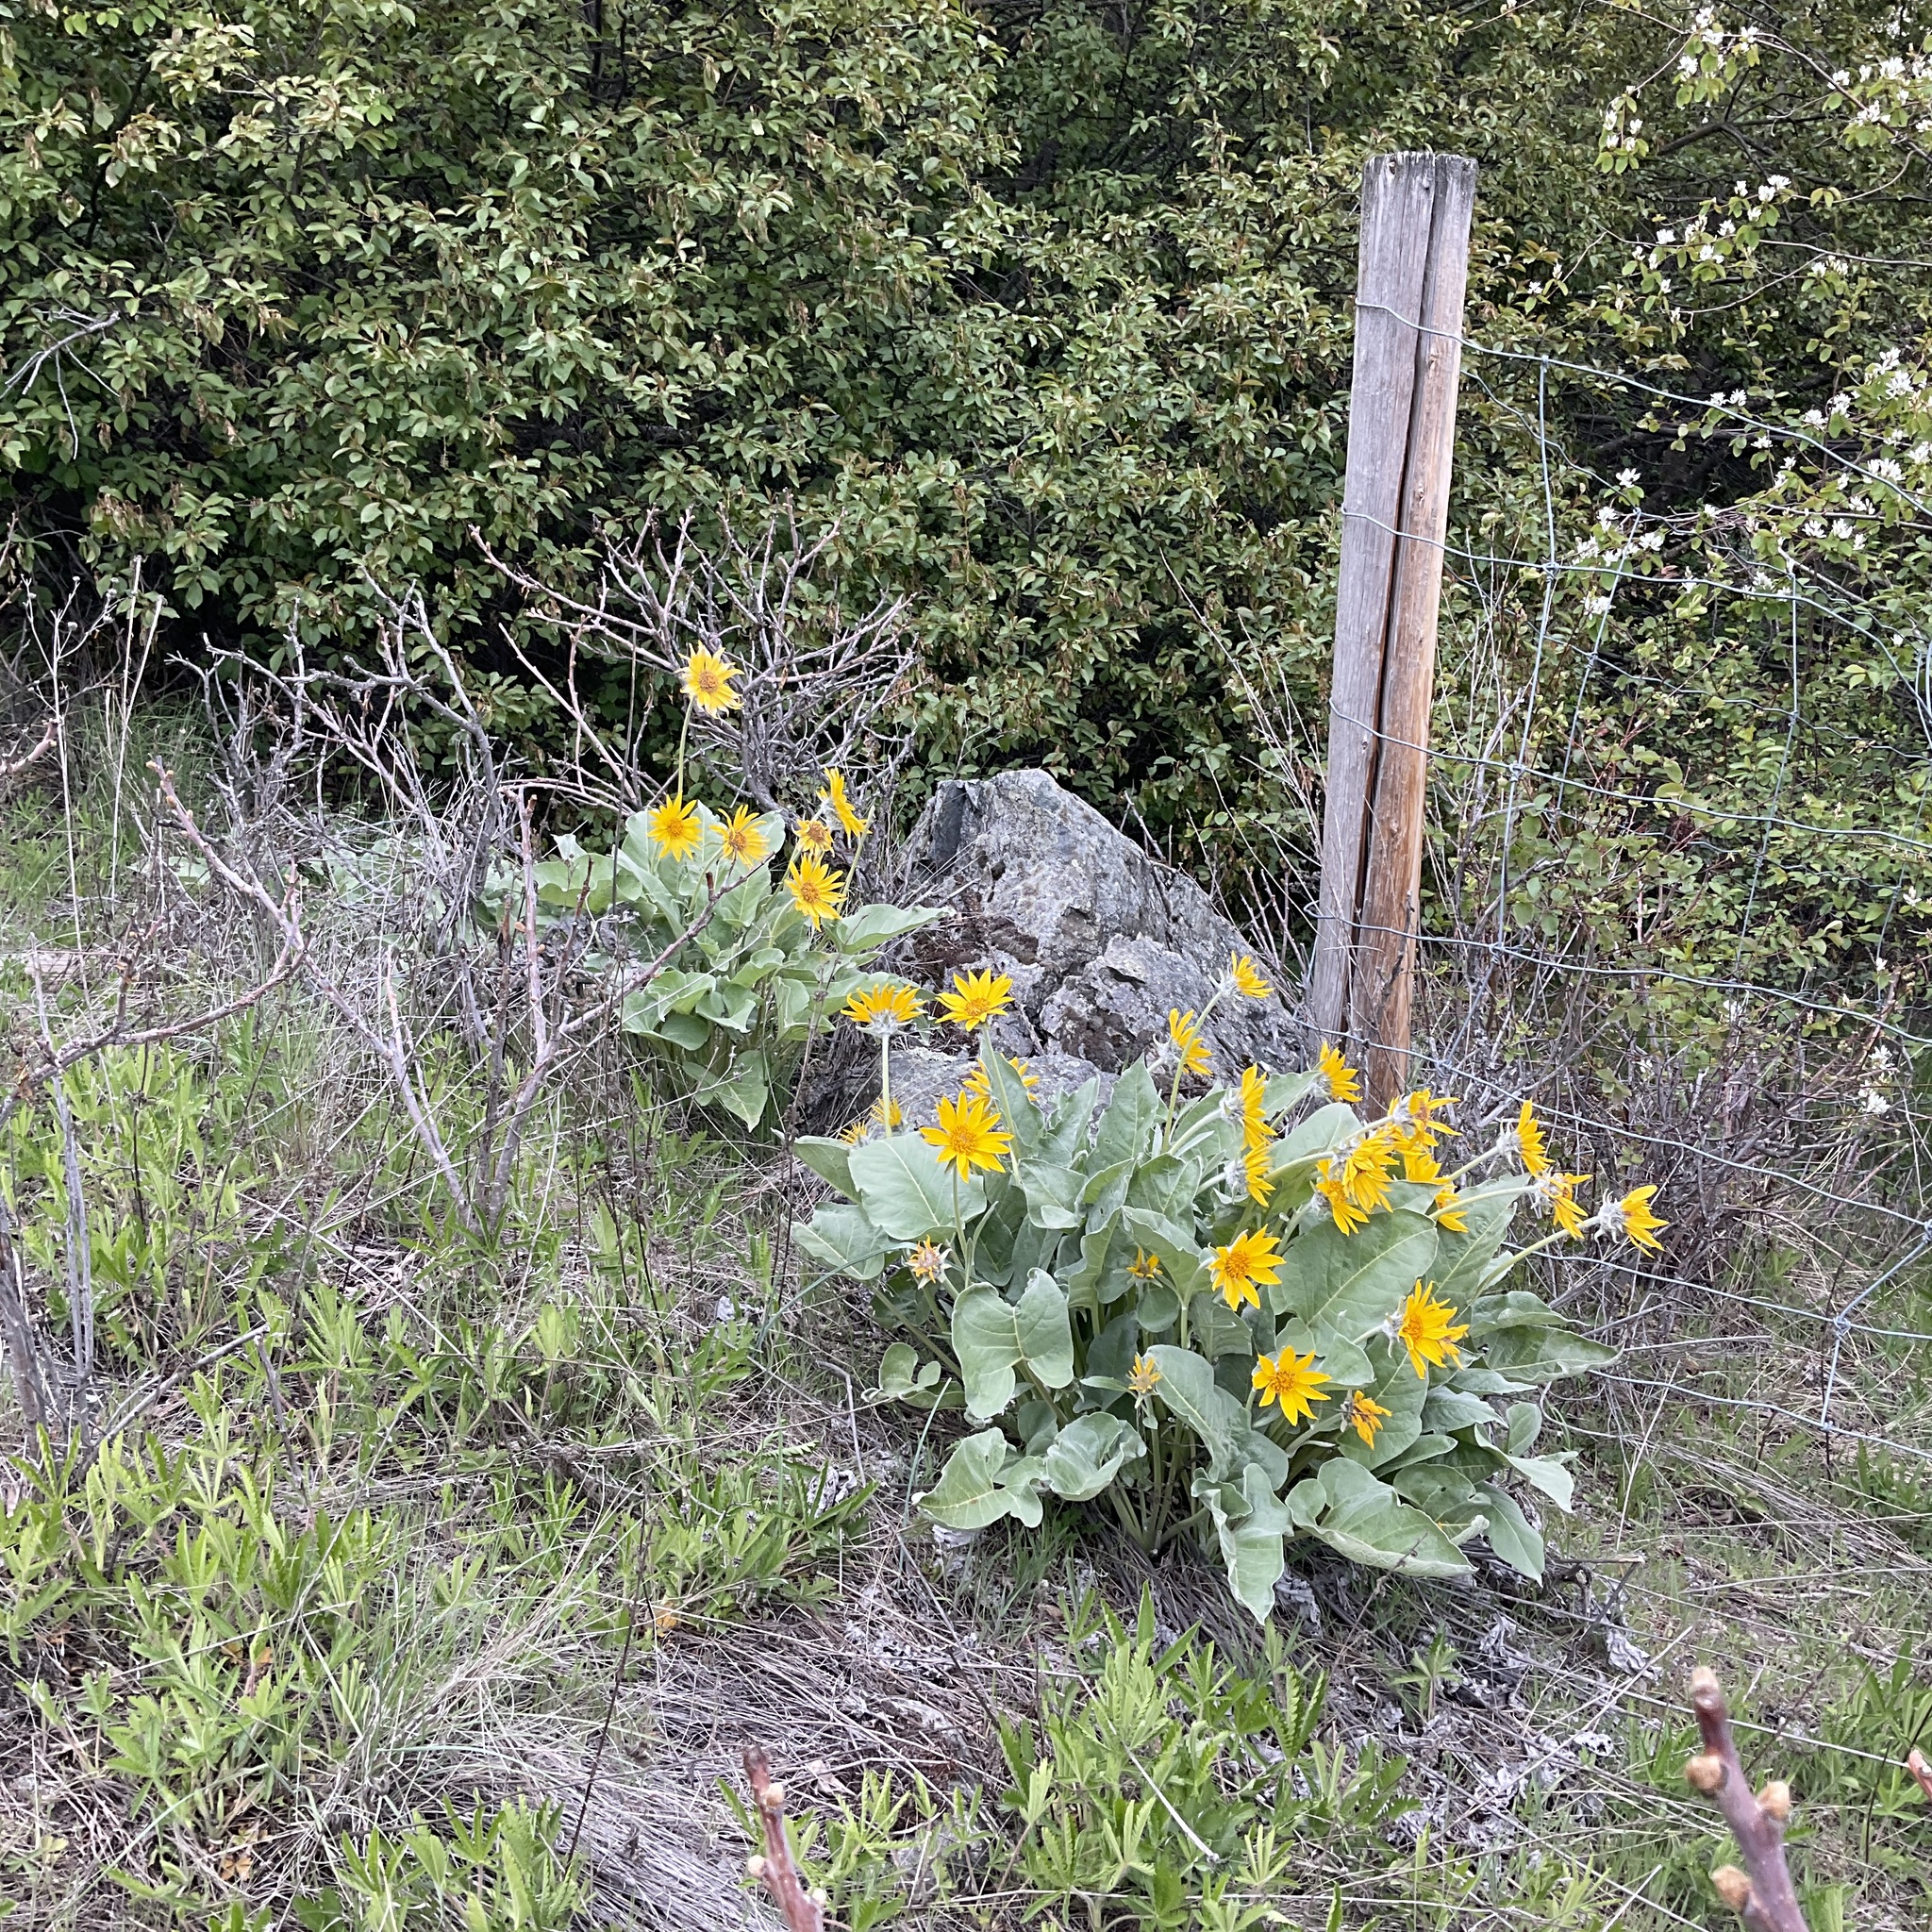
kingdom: Plantae
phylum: Tracheophyta
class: Magnoliopsida
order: Asterales
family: Asteraceae
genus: Wyethia
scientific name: Wyethia sagittata
